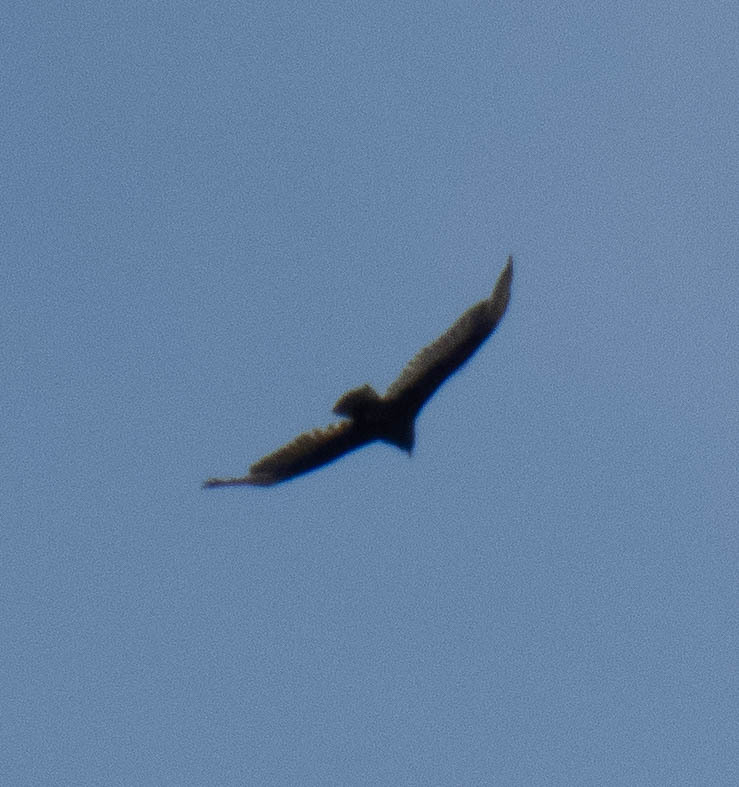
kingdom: Animalia
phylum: Chordata
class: Aves
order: Accipitriformes
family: Cathartidae
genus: Cathartes
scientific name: Cathartes aura
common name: Turkey vulture
